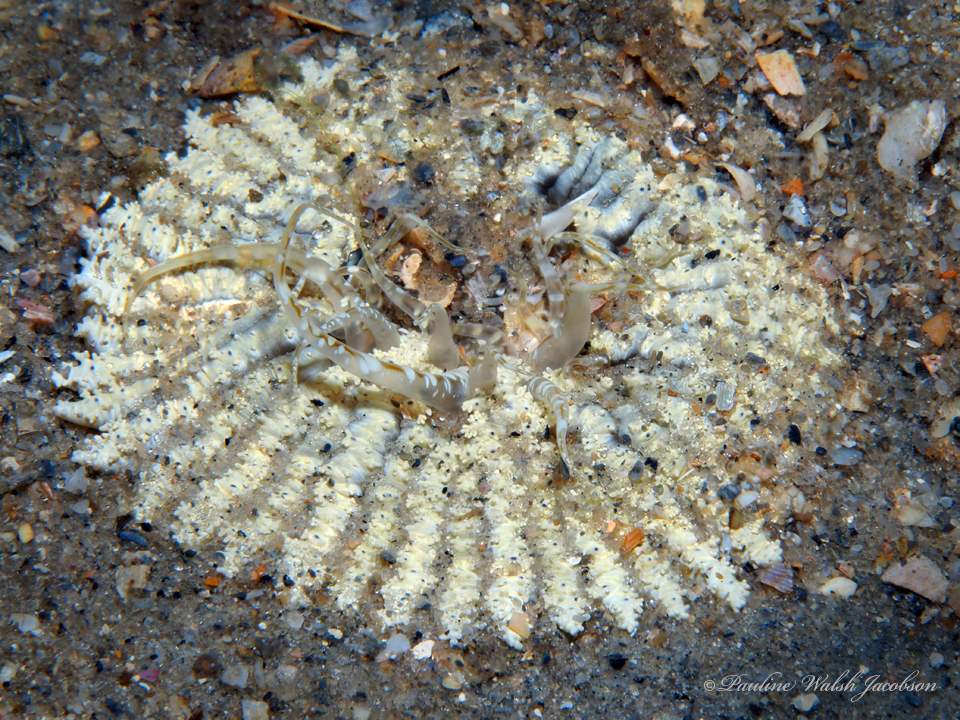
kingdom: Animalia
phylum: Cnidaria
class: Anthozoa
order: Actiniaria
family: Actiniidae
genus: Actinostella
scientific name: Actinostella flosculifera
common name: Collared sand anemone
